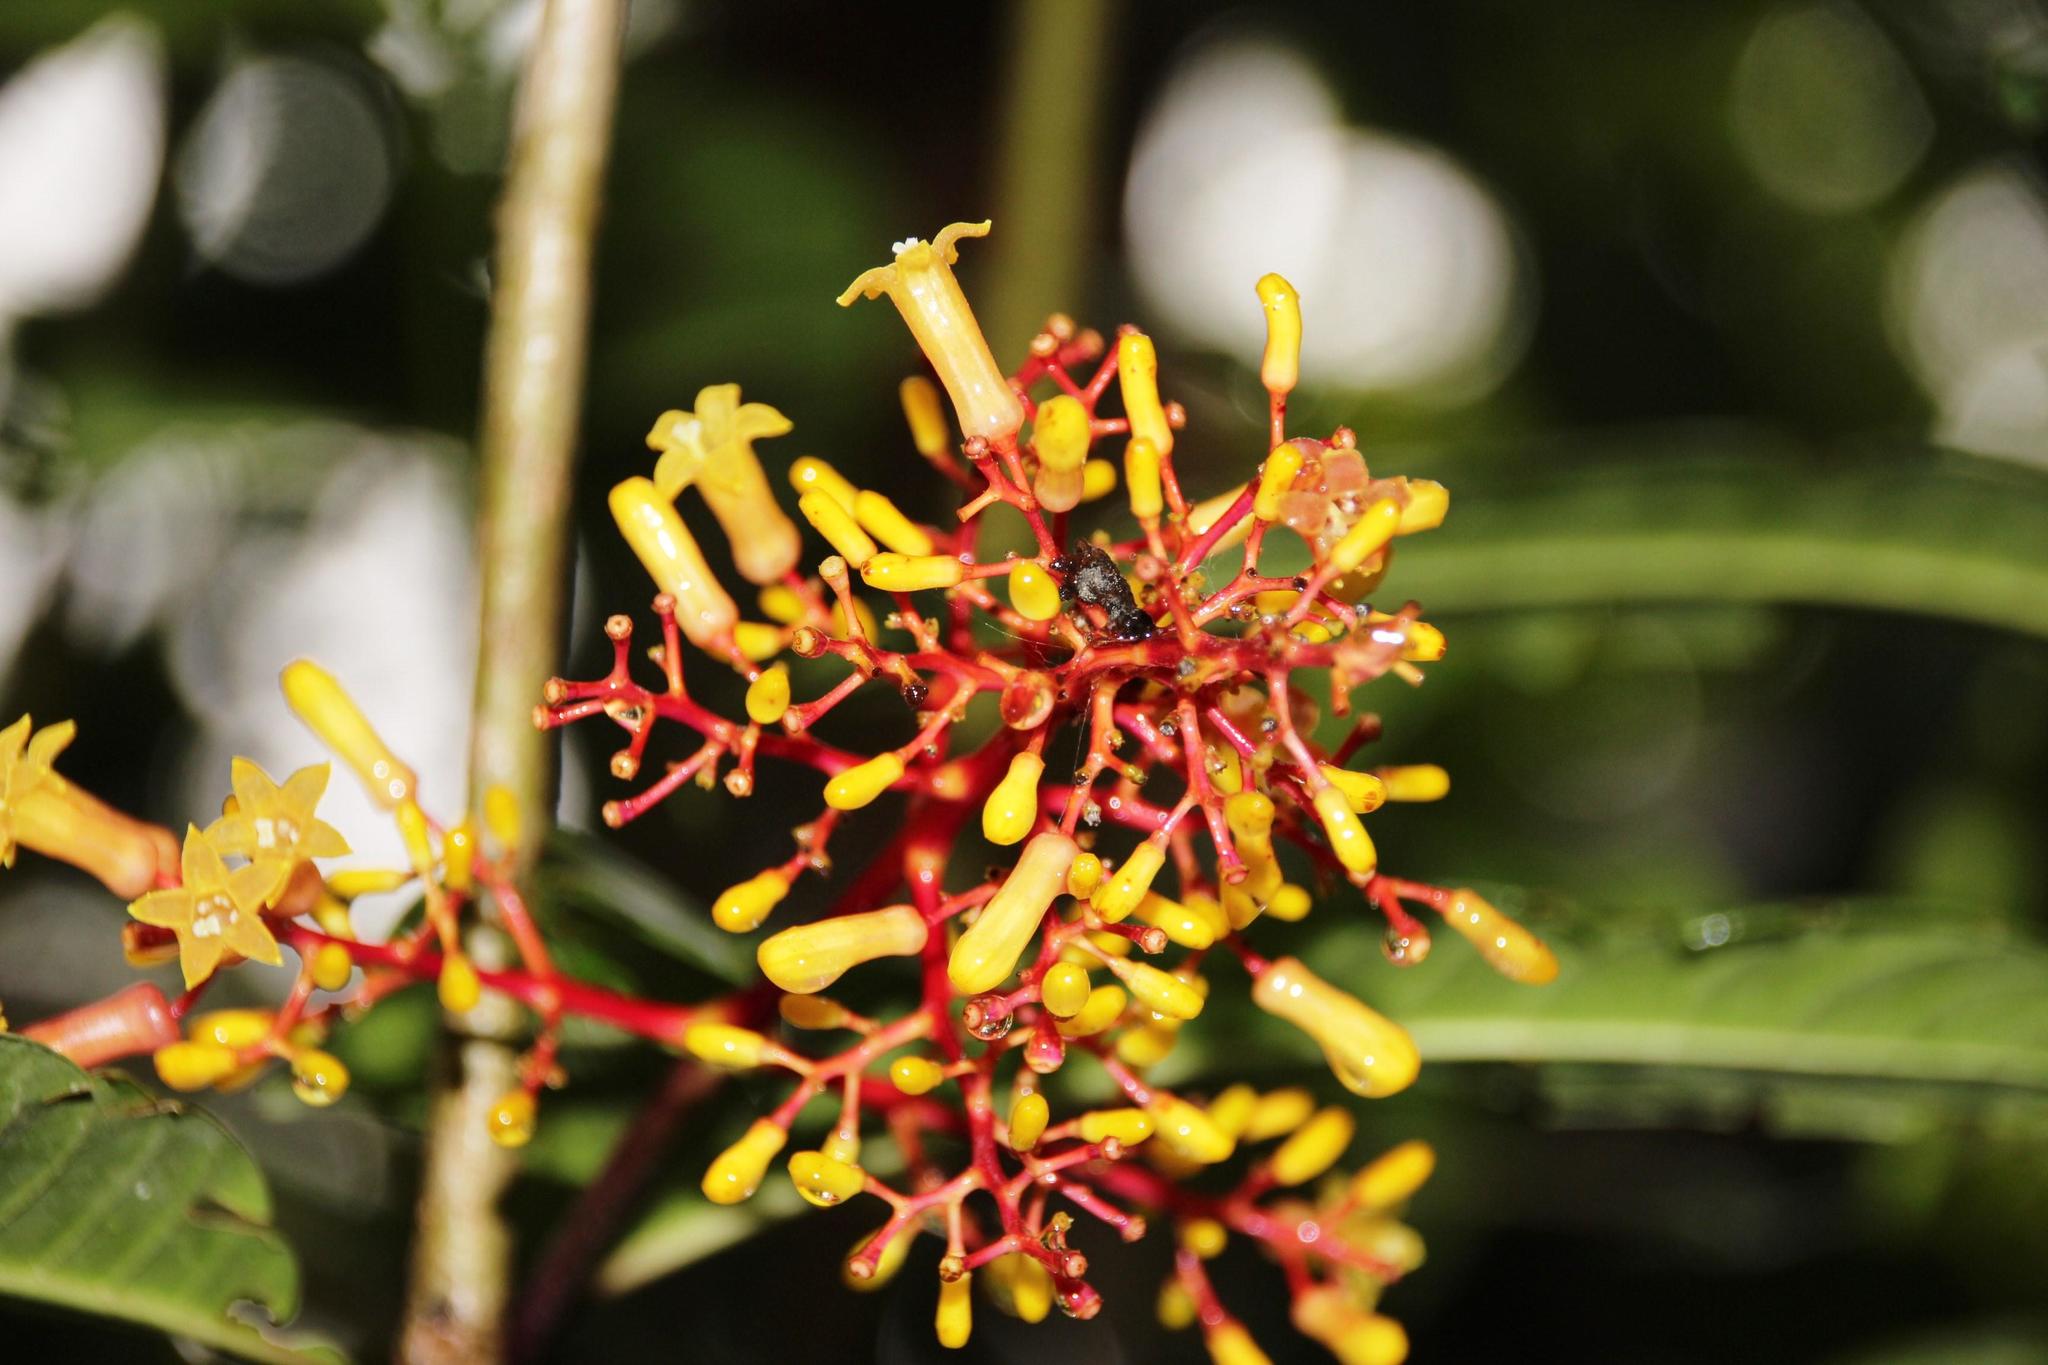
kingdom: Plantae
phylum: Tracheophyta
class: Magnoliopsida
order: Gentianales
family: Rubiaceae
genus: Palicourea
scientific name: Palicourea thyrsiflora
